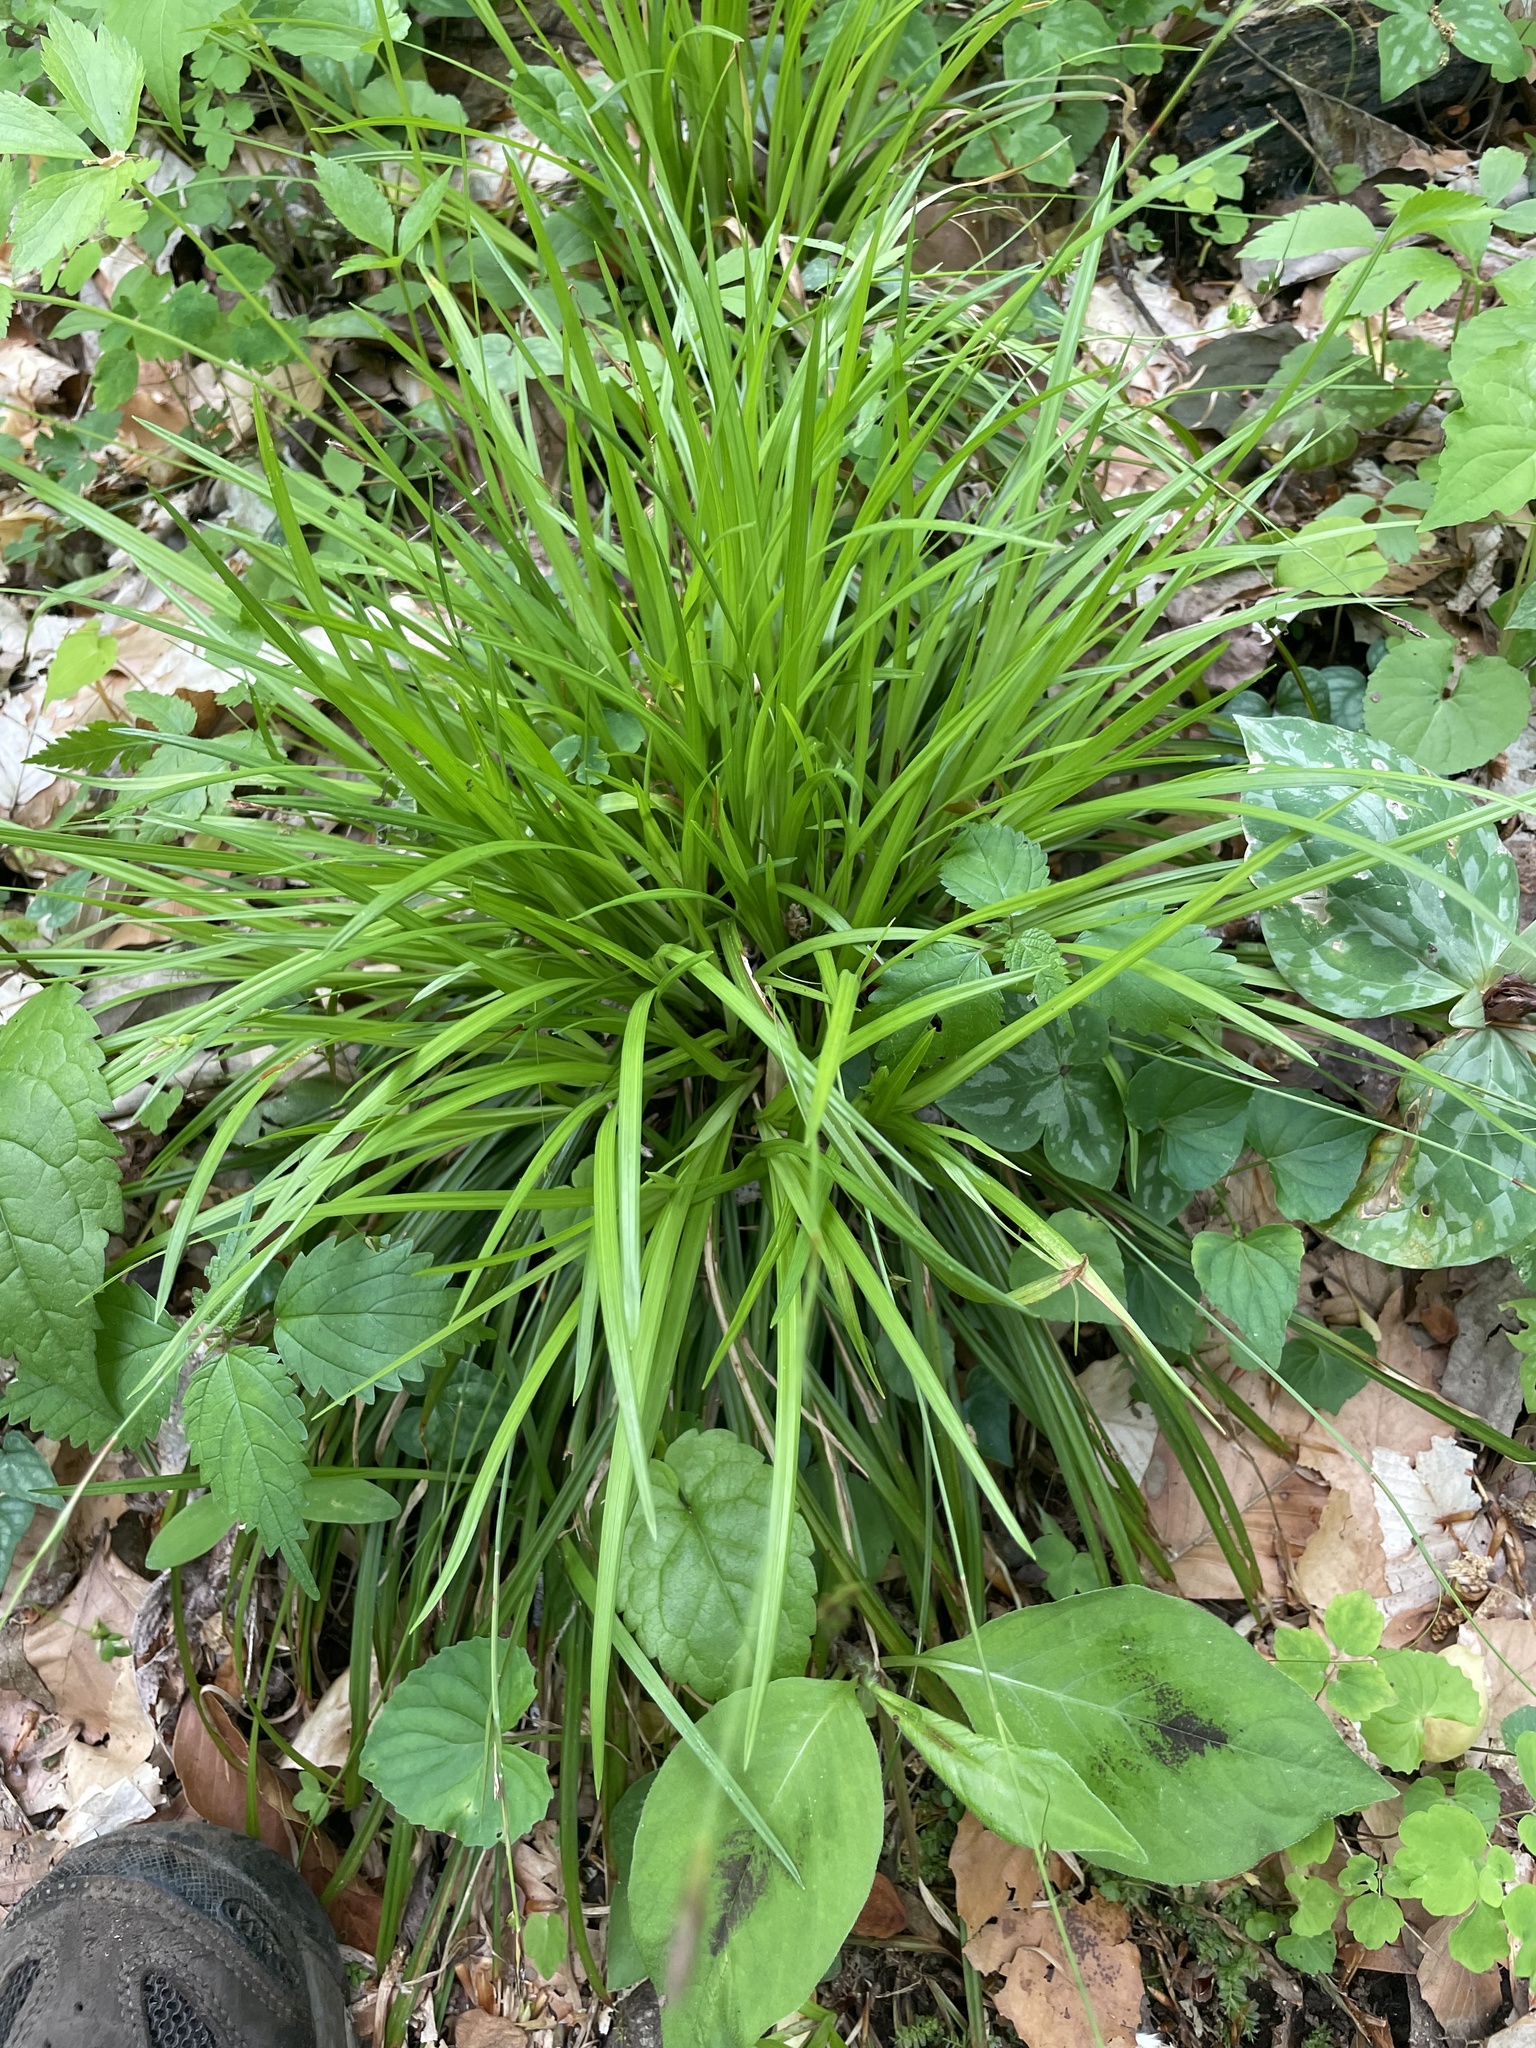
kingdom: Plantae
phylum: Tracheophyta
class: Liliopsida
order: Poales
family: Cyperaceae
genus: Carex
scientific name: Carex austrocaroliniana
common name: Tarheel sedge
